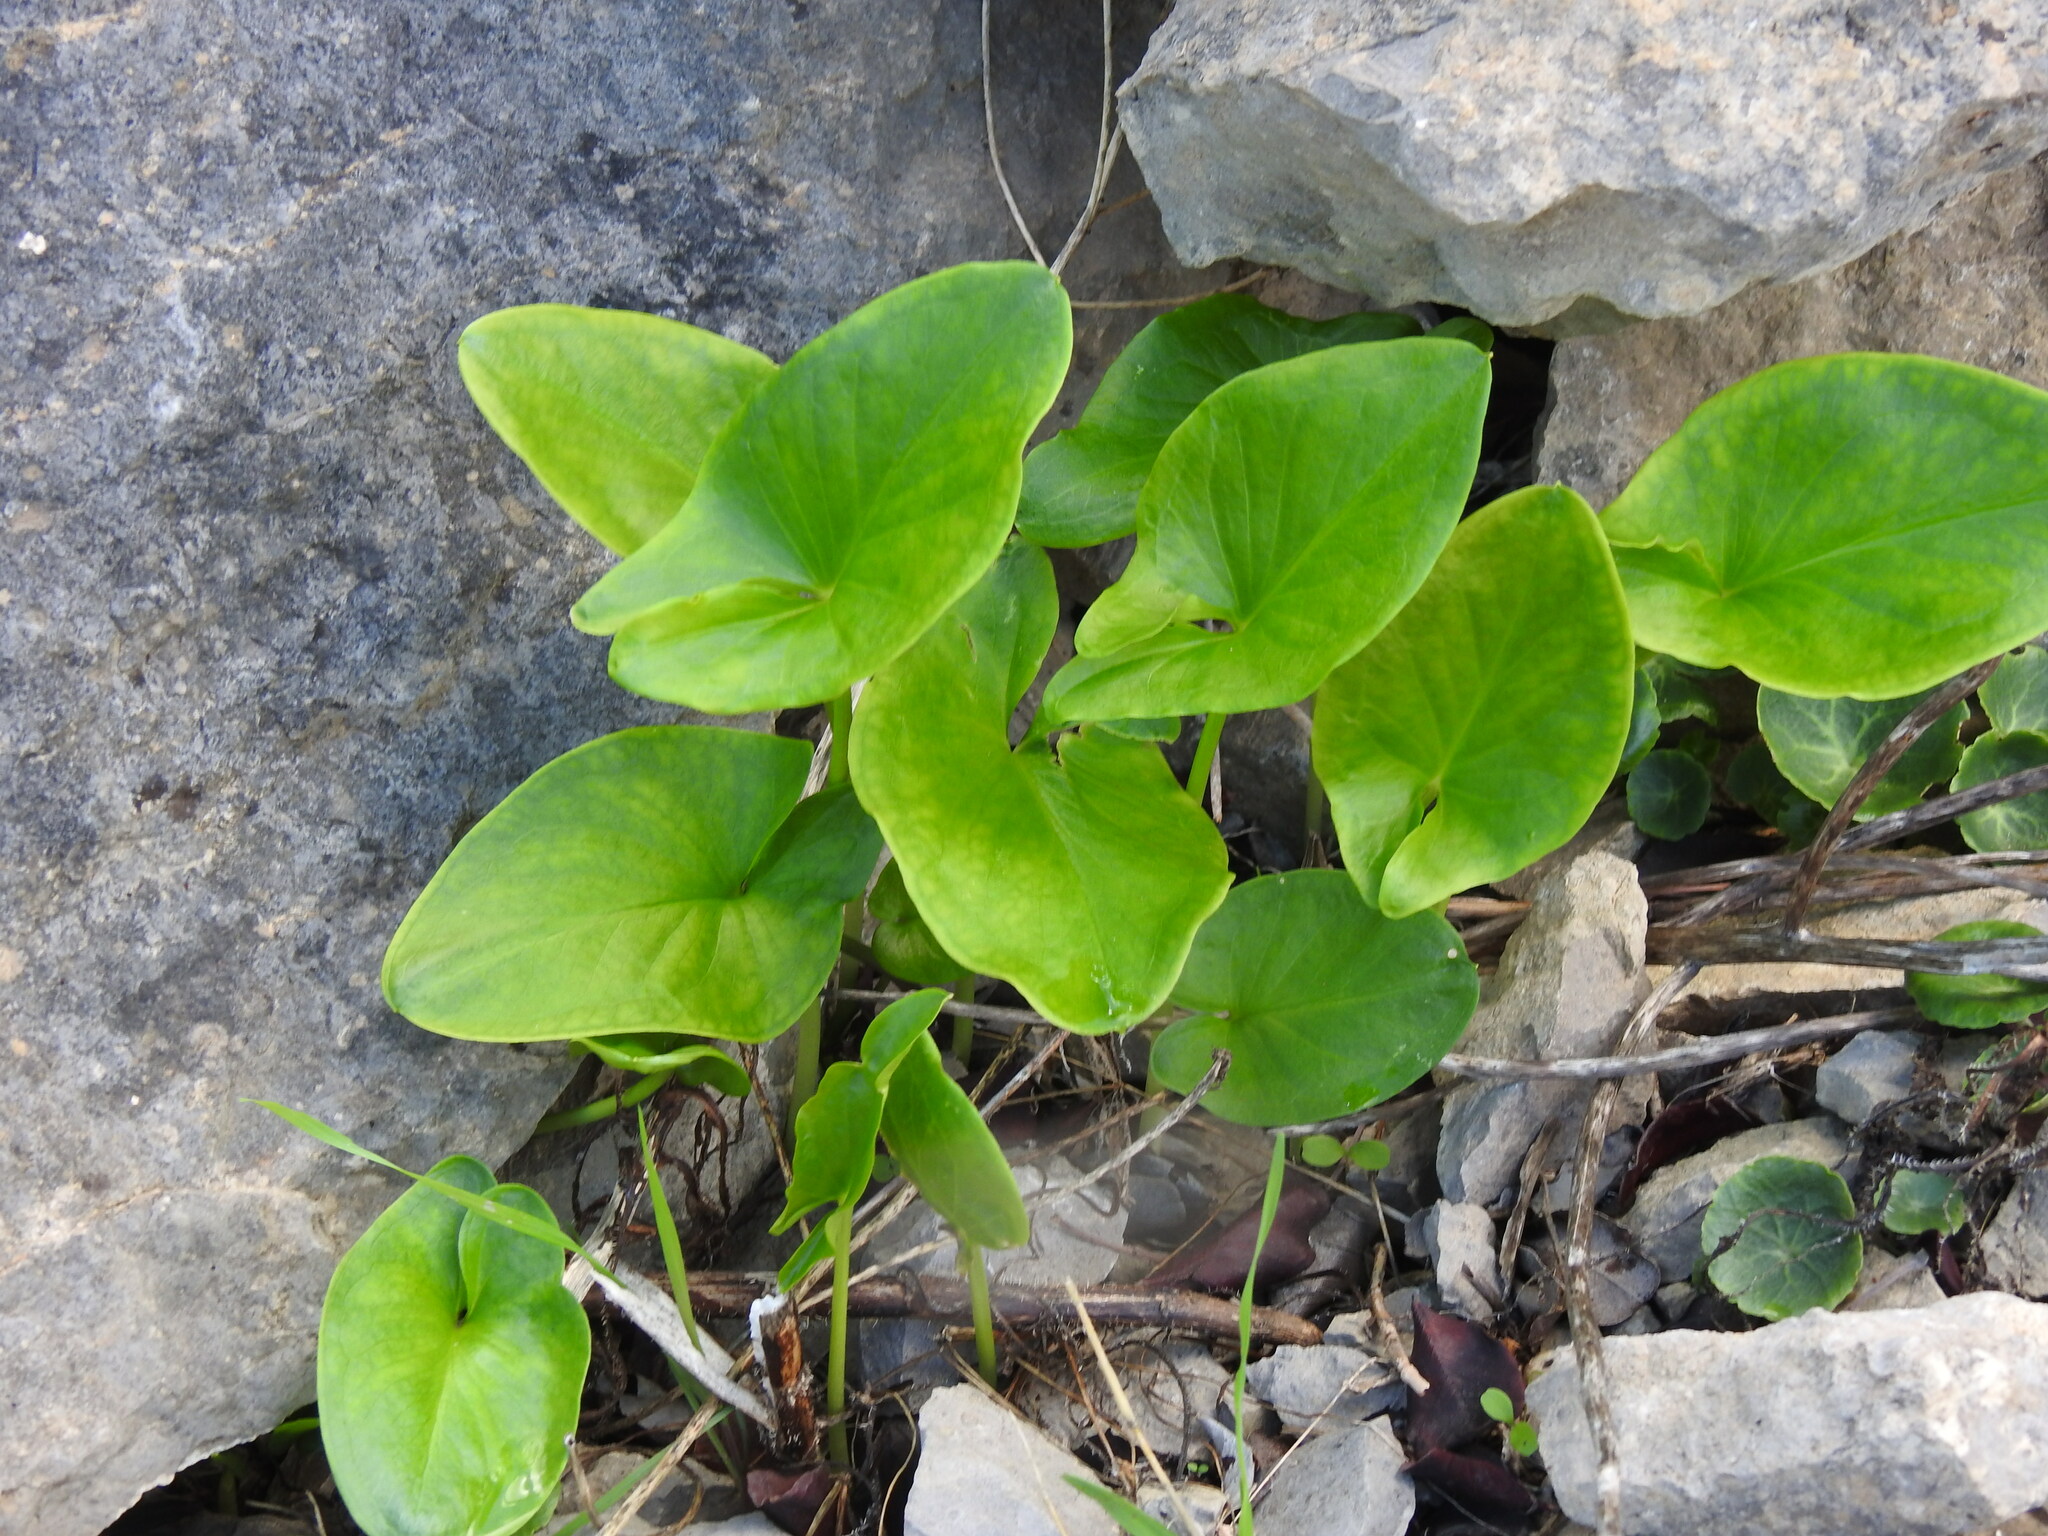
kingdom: Plantae
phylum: Tracheophyta
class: Liliopsida
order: Alismatales
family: Araceae
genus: Arisarum
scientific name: Arisarum simorrhinum
